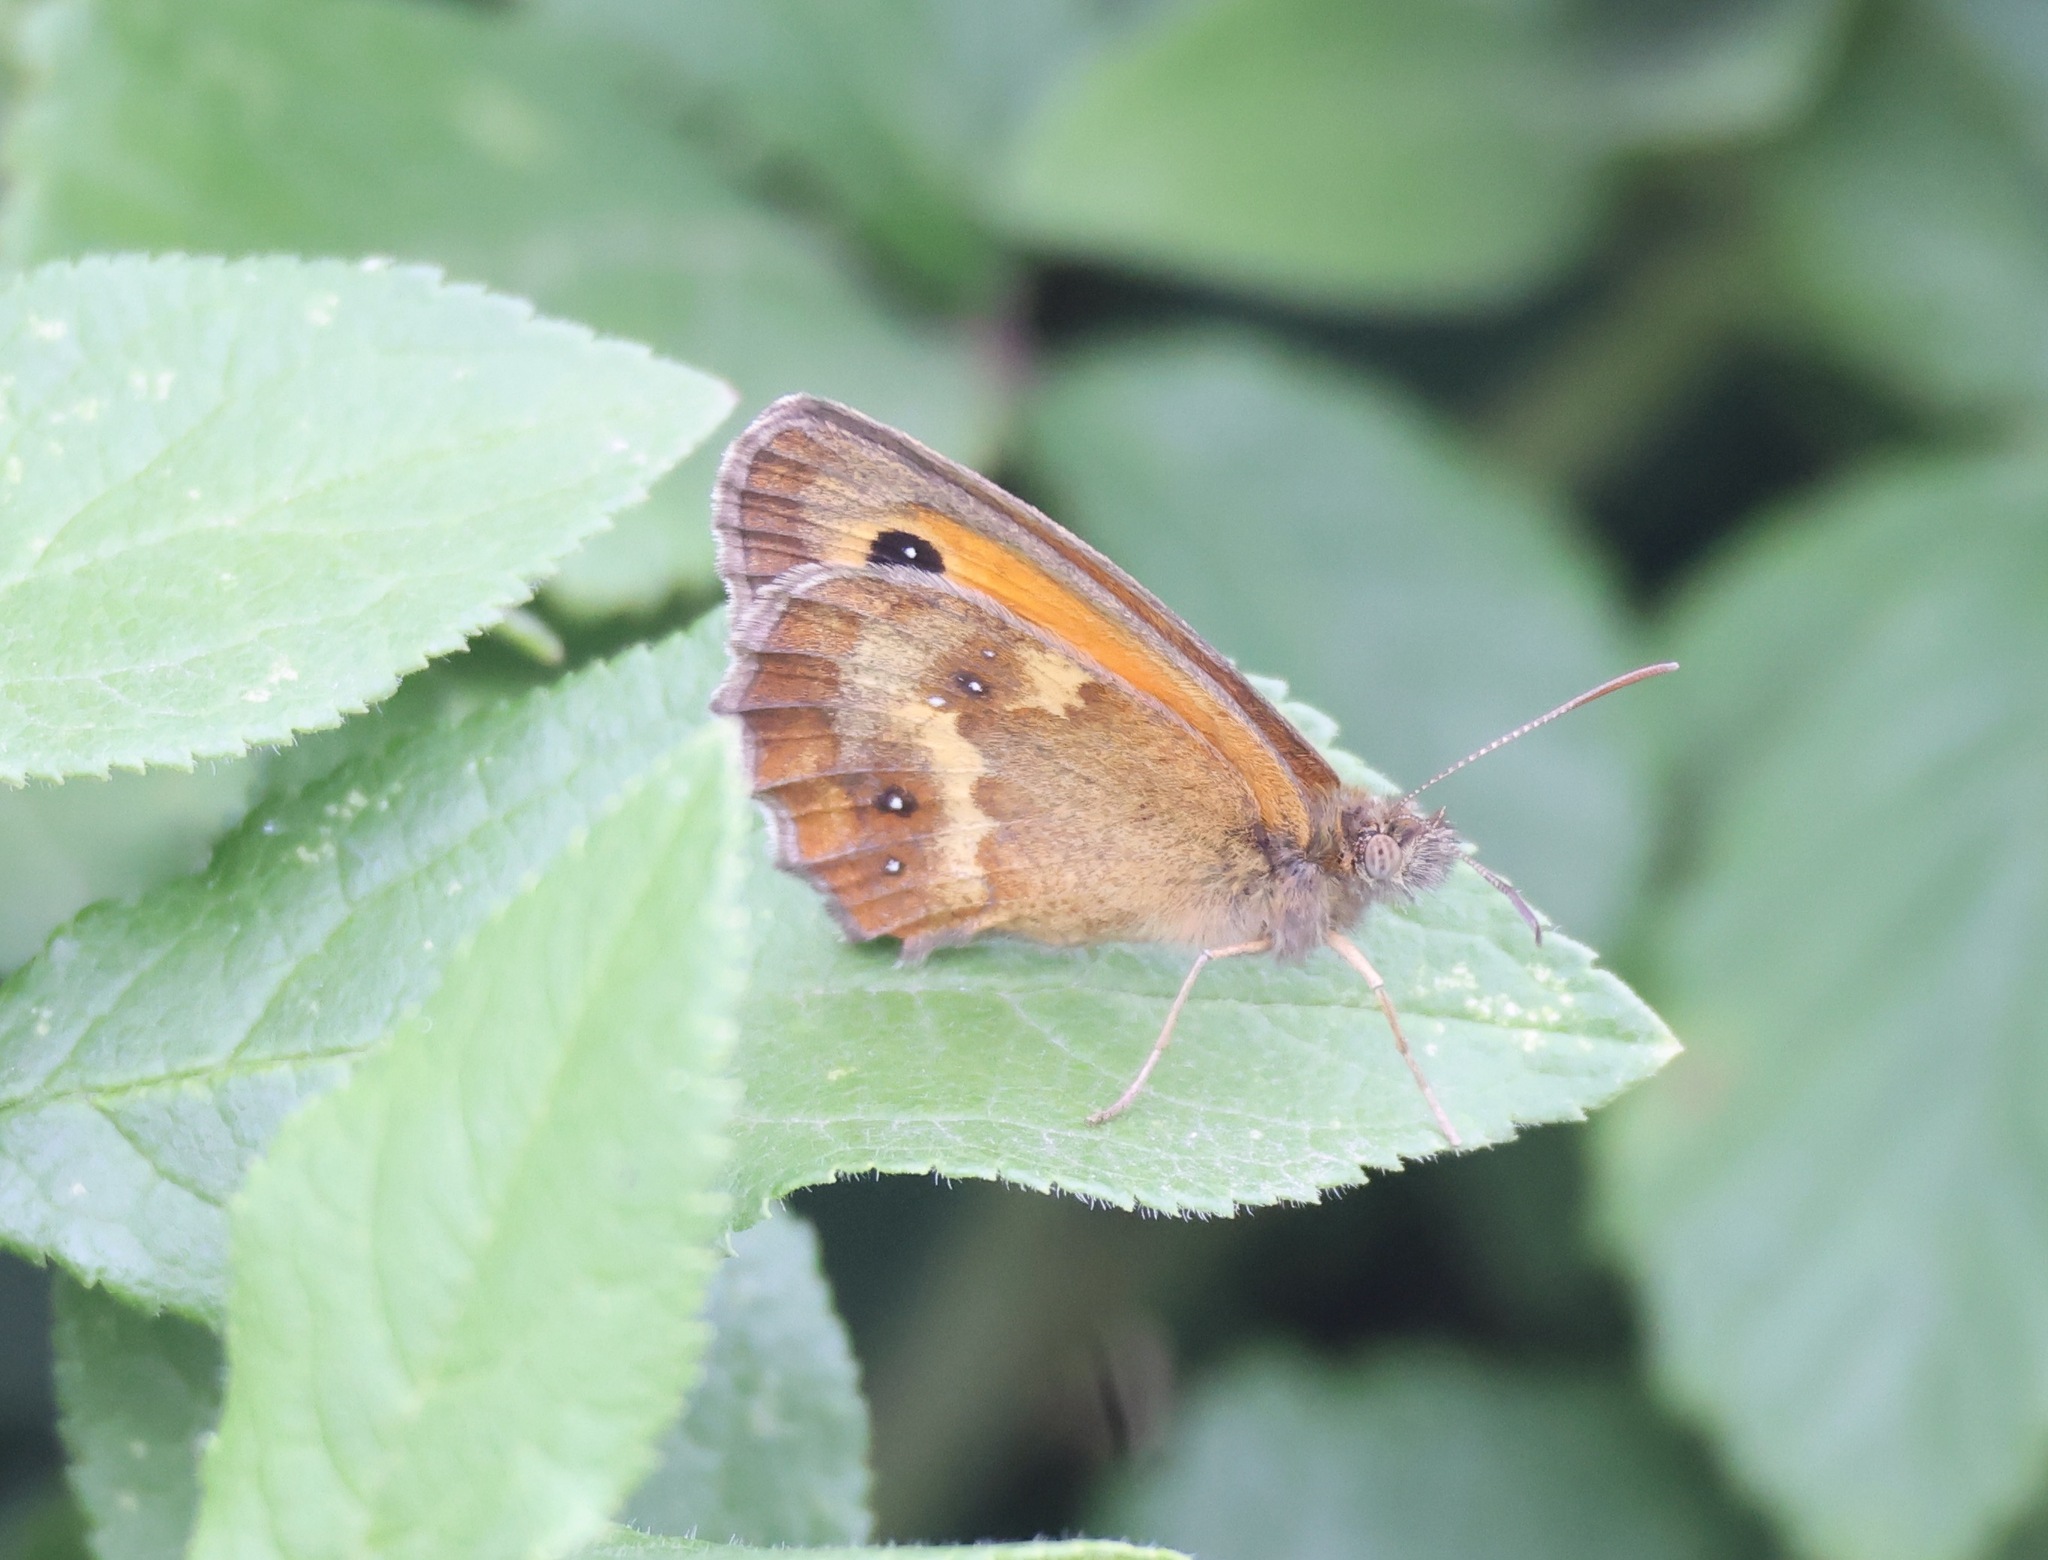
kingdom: Animalia
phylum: Arthropoda
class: Insecta
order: Lepidoptera
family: Nymphalidae
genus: Pyronia
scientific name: Pyronia tithonus
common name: Gatekeeper
